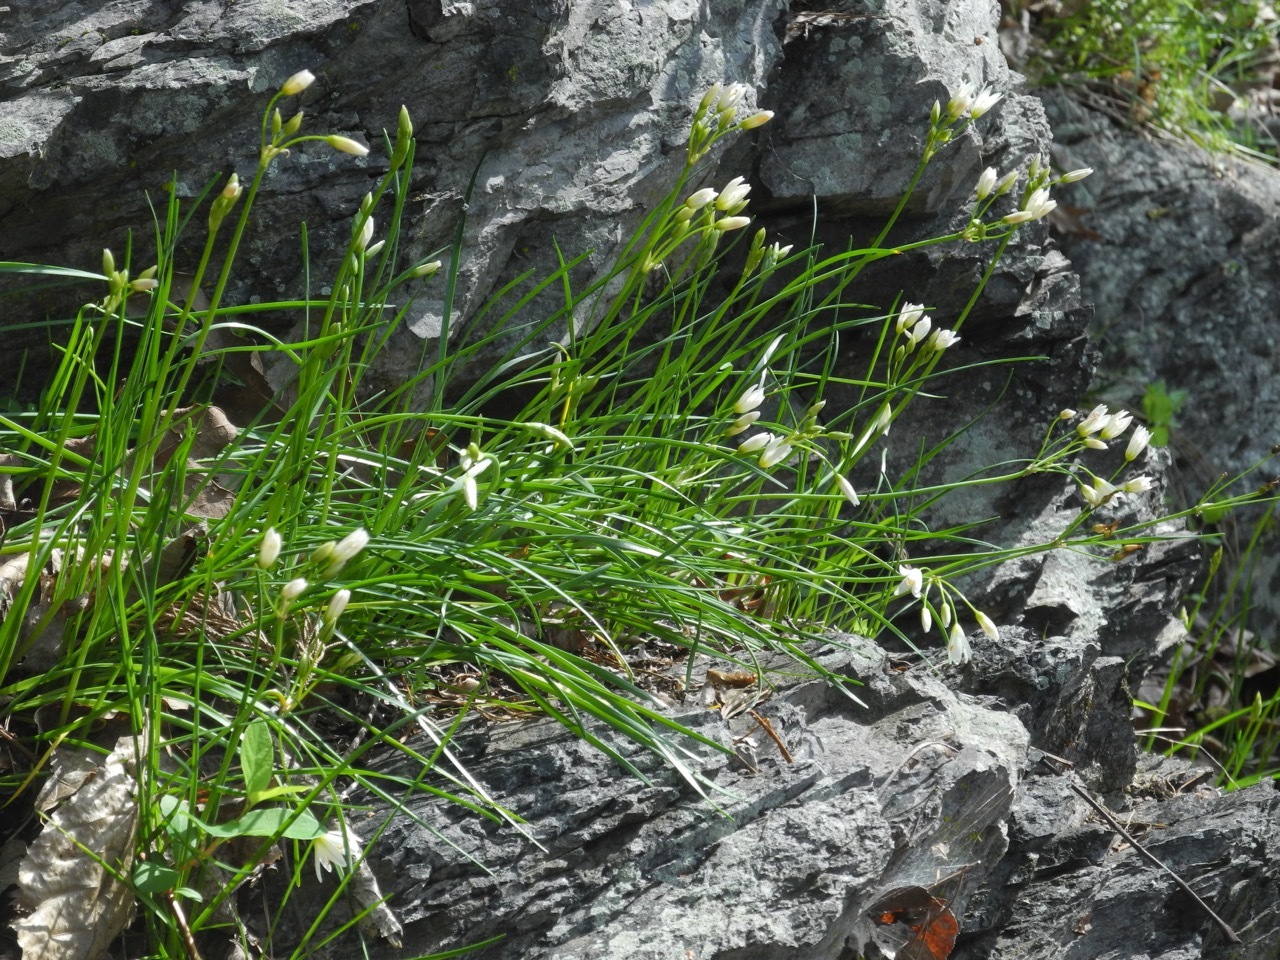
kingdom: Plantae
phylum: Tracheophyta
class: Liliopsida
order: Asparagales
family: Amaryllidaceae
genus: Nothoscordum
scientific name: Nothoscordum bivalve
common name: Crow-poison
